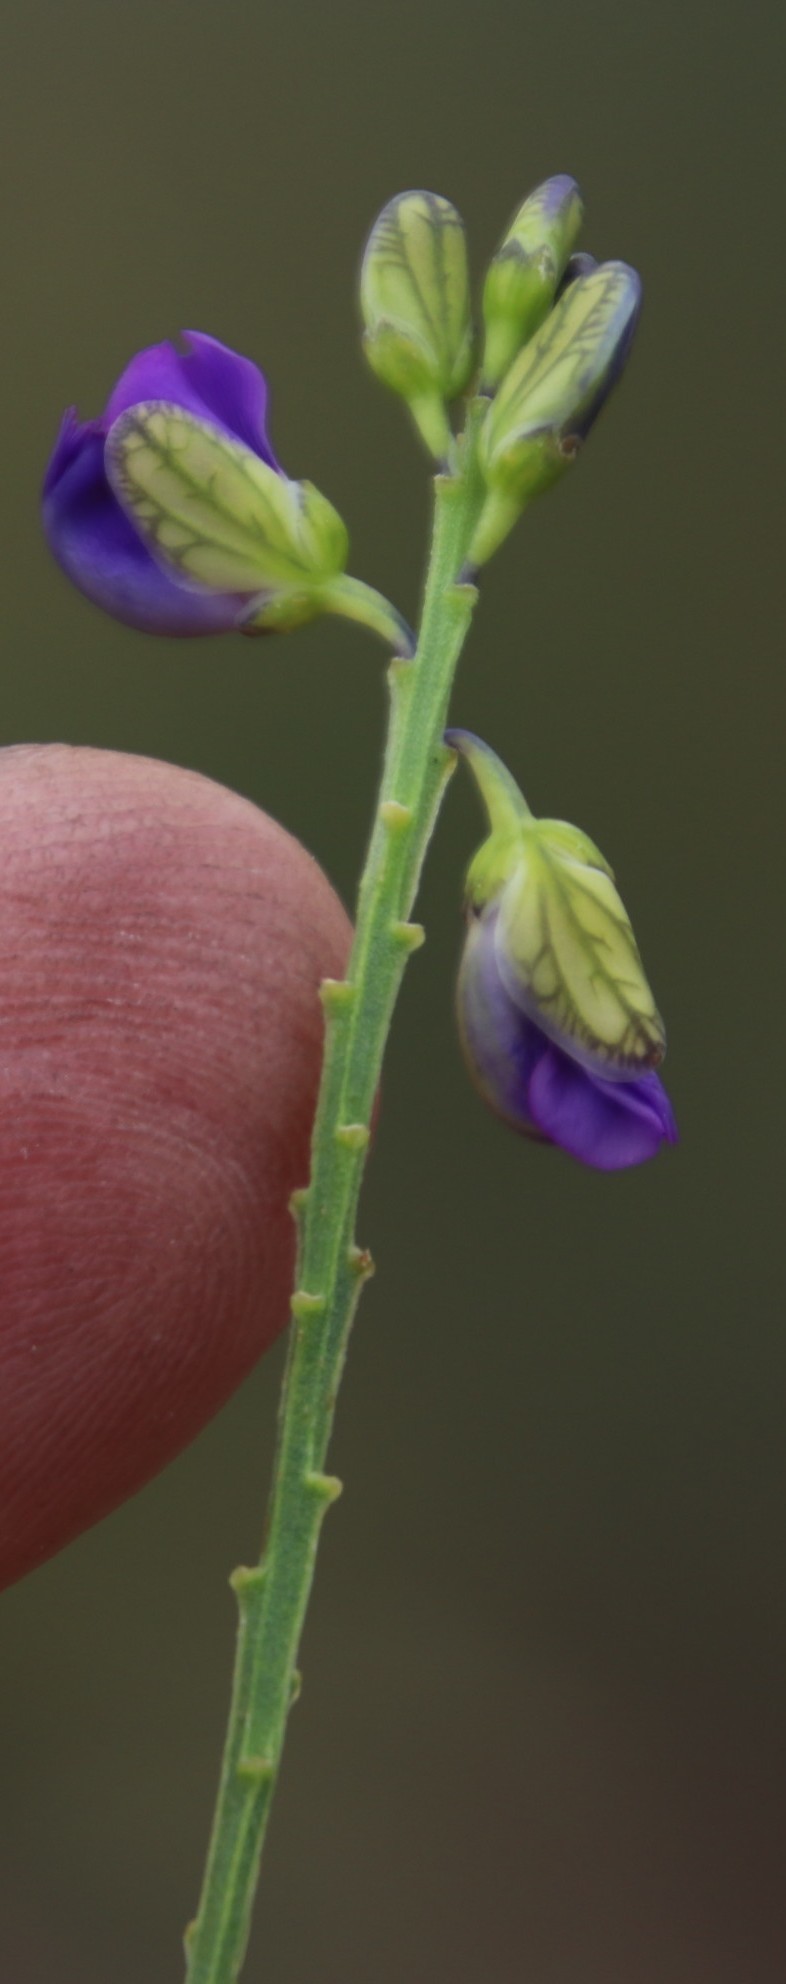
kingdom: Plantae
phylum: Tracheophyta
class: Magnoliopsida
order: Fabales
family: Polygalaceae
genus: Polygala
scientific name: Polygala uncinata
